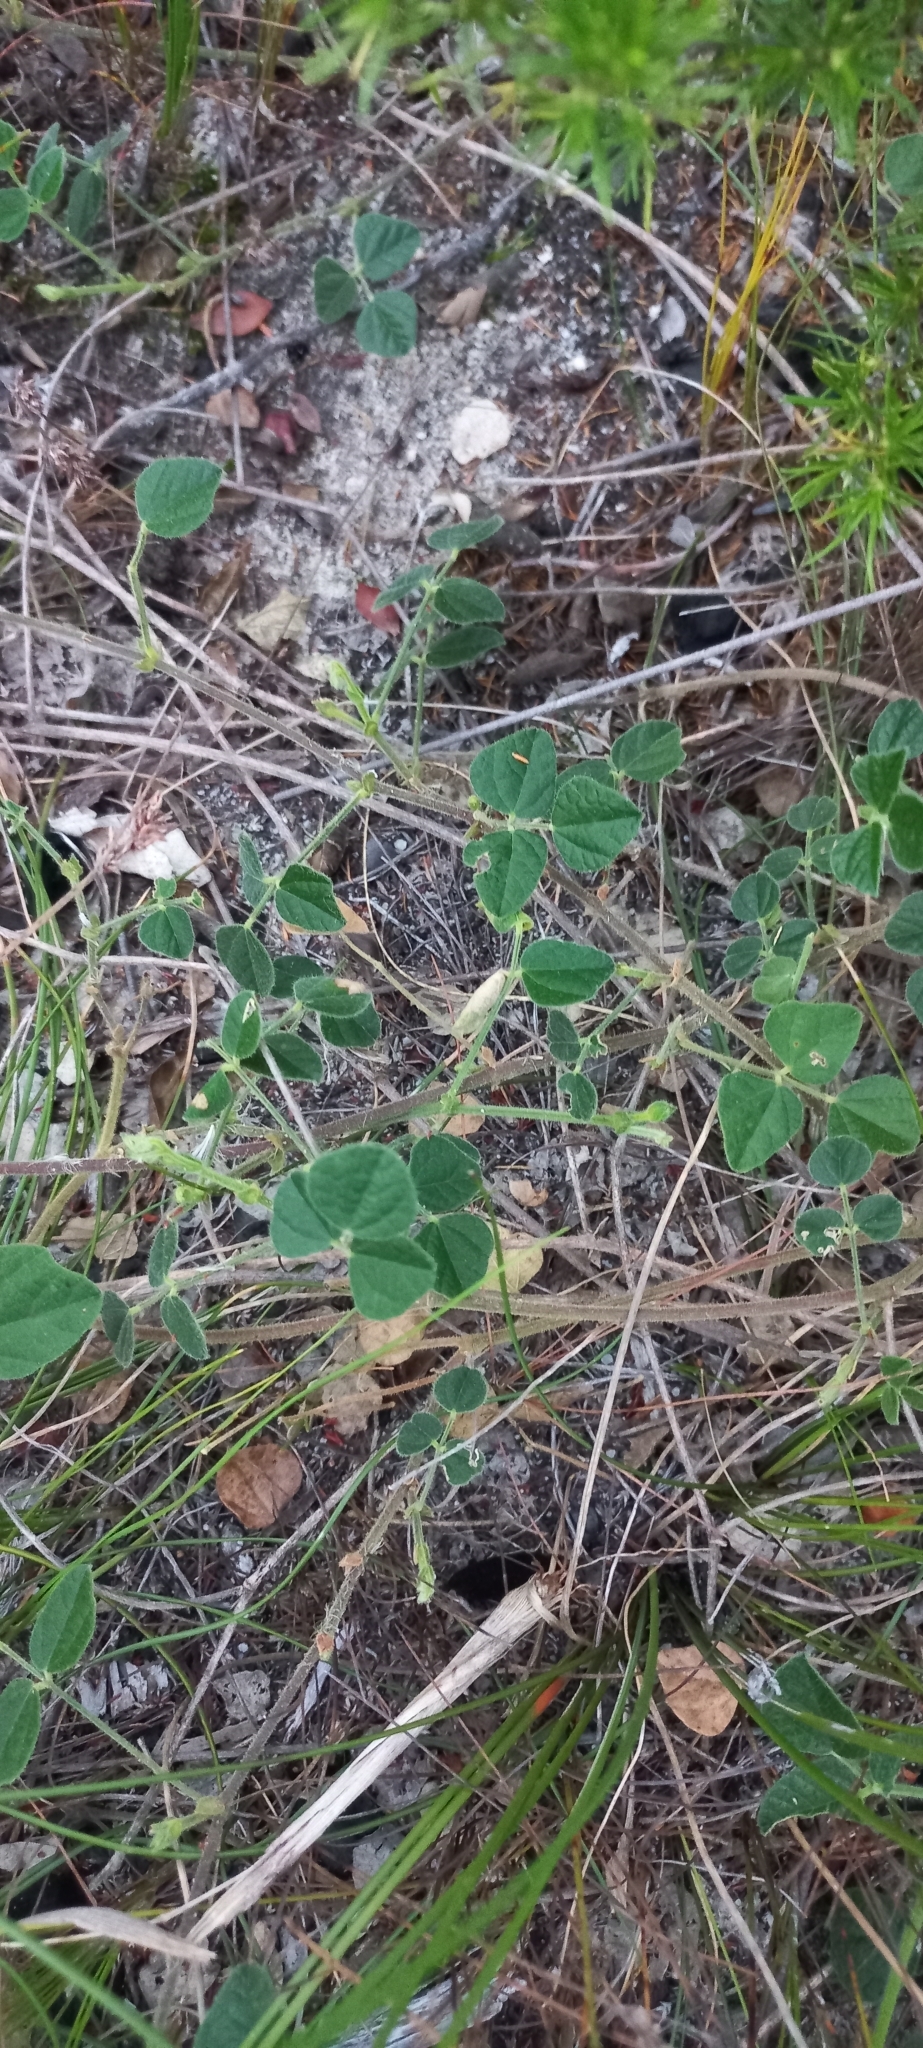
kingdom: Plantae
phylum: Tracheophyta
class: Magnoliopsida
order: Fabales
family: Fabaceae
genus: Bolusafra
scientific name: Bolusafra bituminosa
